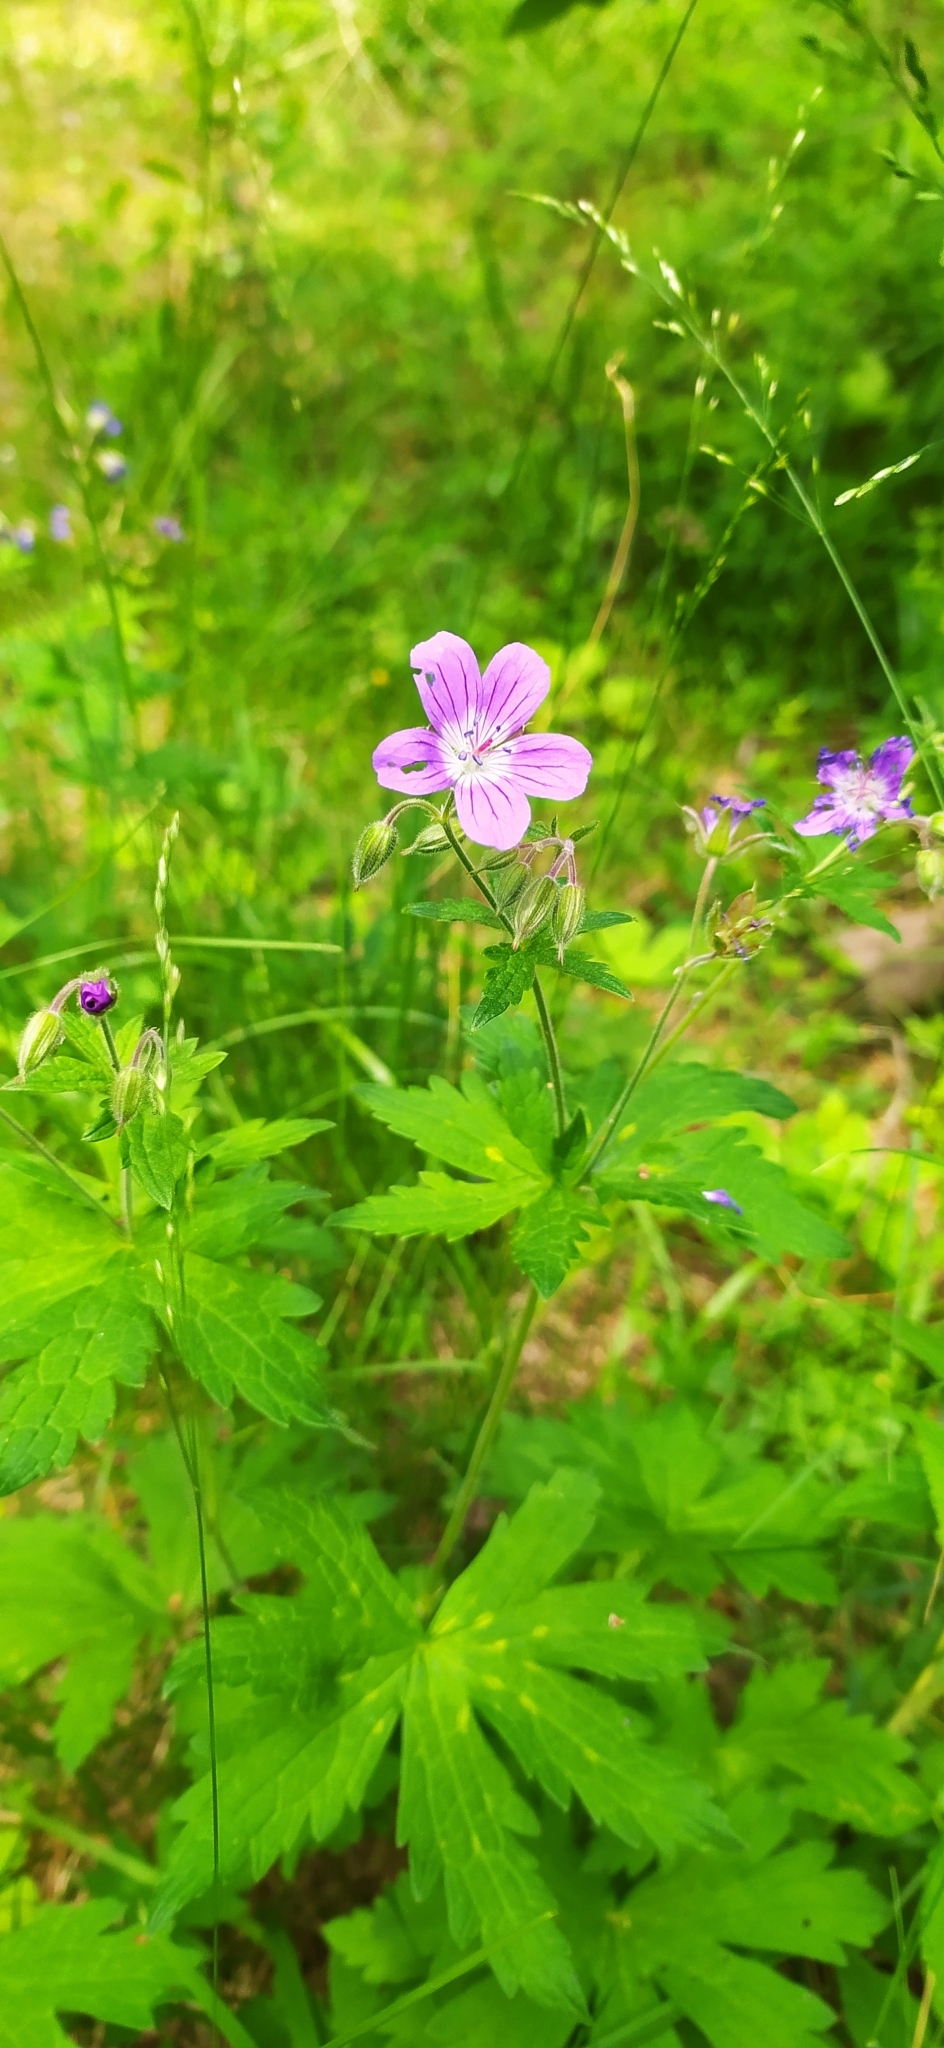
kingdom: Plantae
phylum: Tracheophyta
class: Magnoliopsida
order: Geraniales
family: Geraniaceae
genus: Geranium
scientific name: Geranium sylvaticum
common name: Wood crane's-bill
